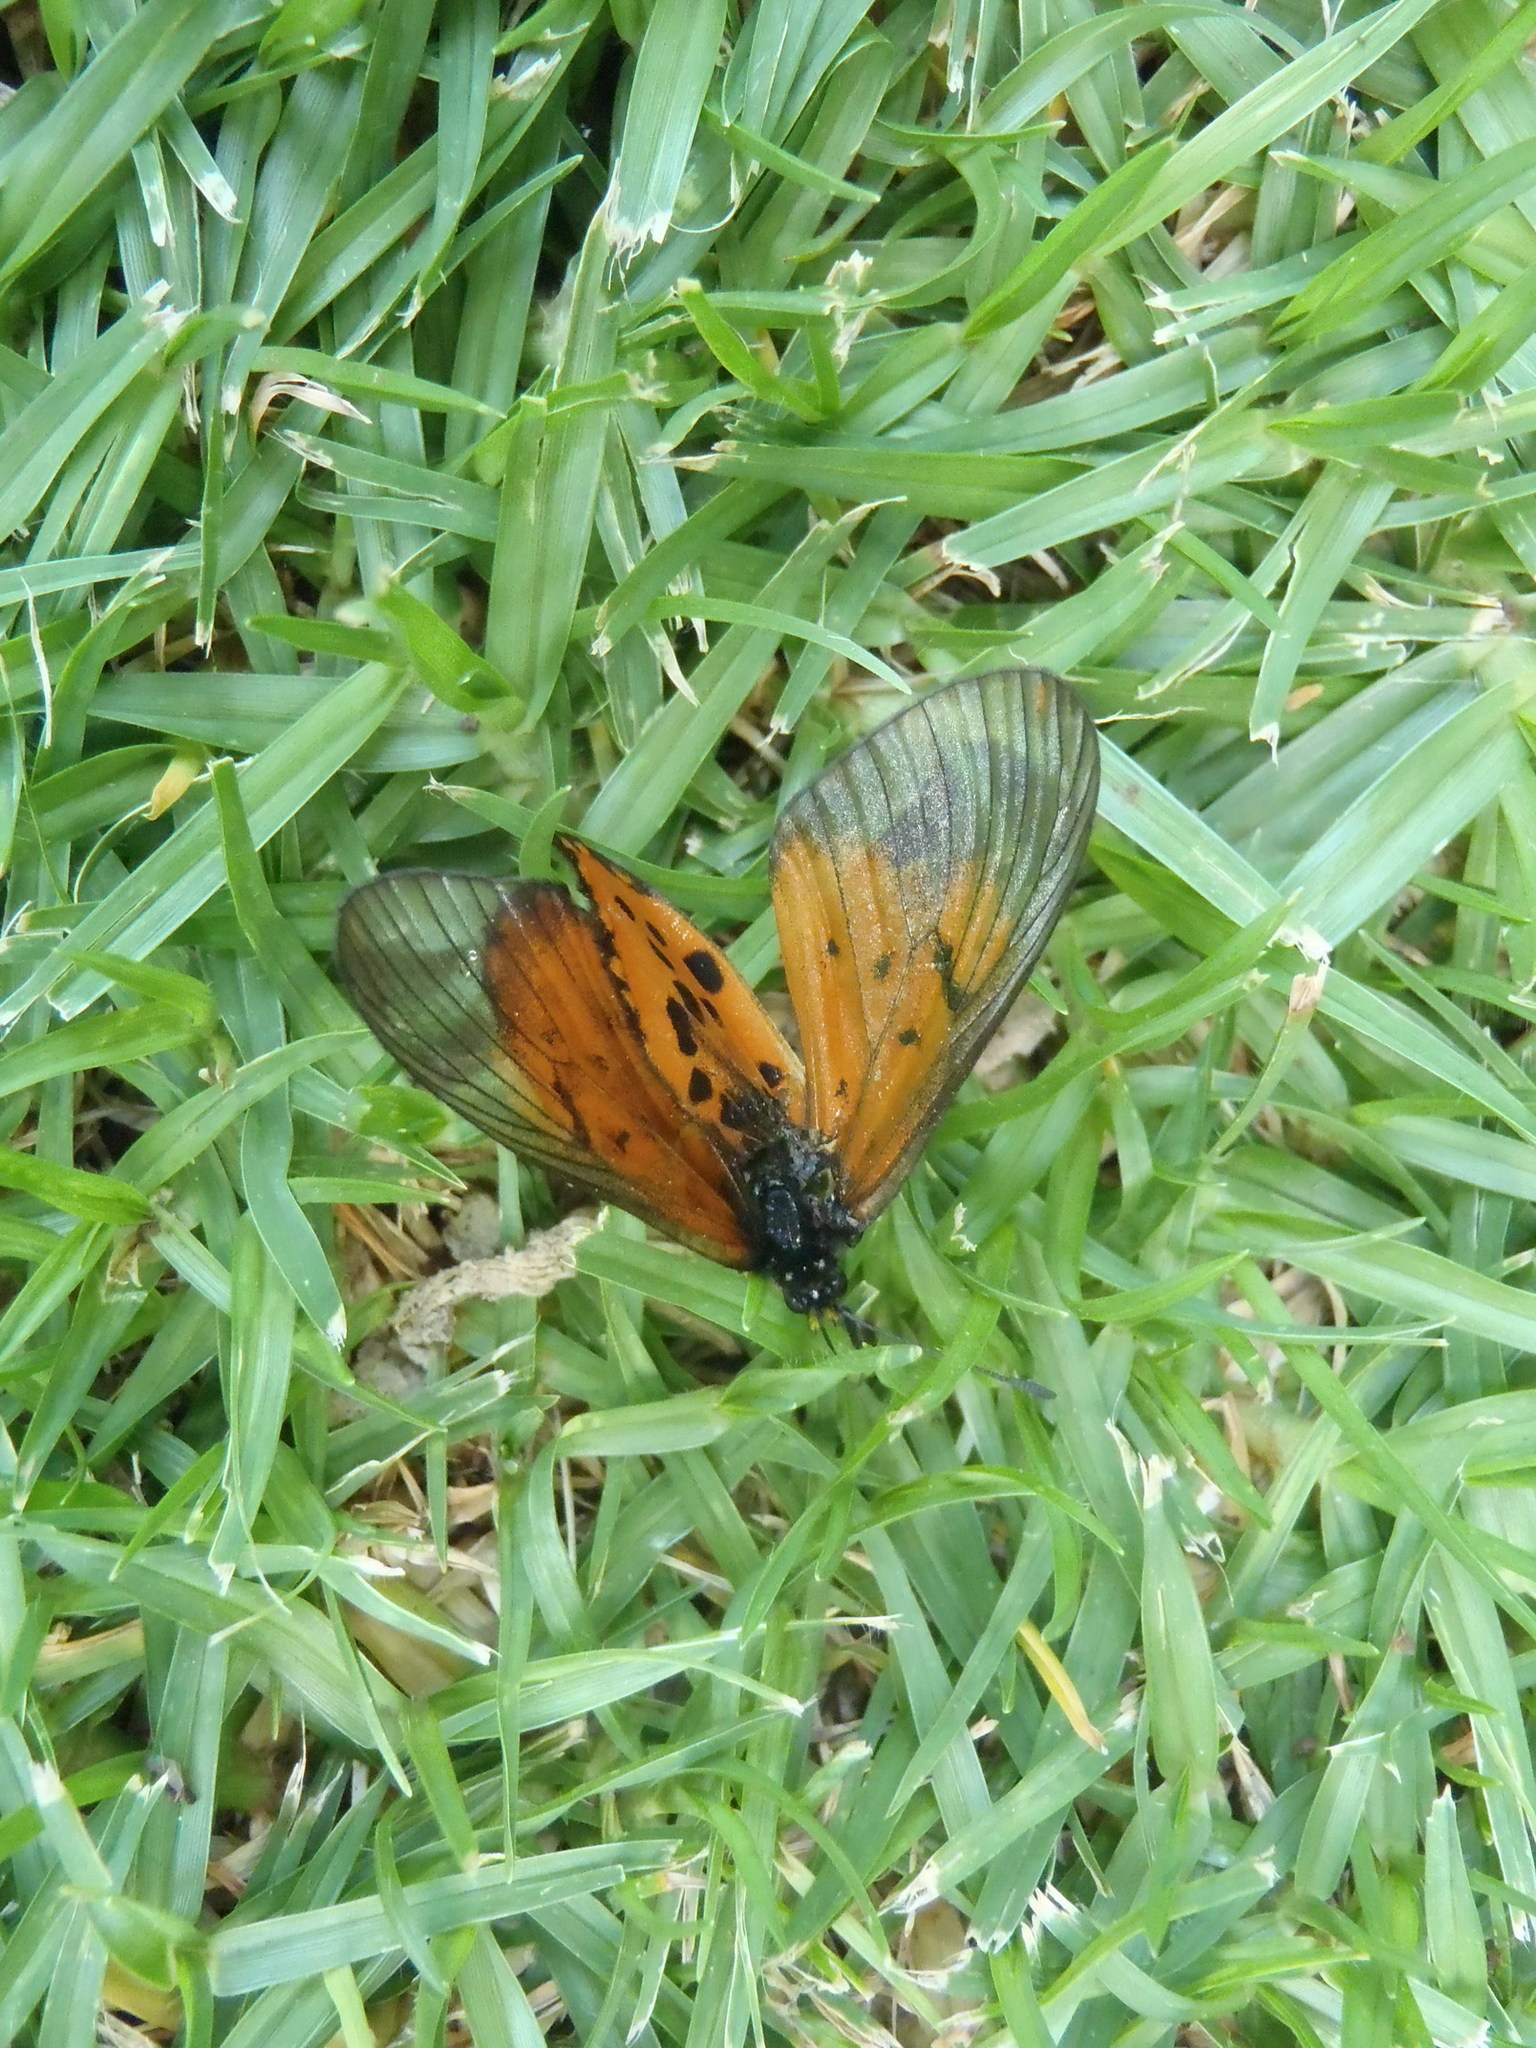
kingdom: Animalia
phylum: Arthropoda
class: Insecta
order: Lepidoptera
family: Nymphalidae
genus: Acraea
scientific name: Acraea horta
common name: Garden acraea
